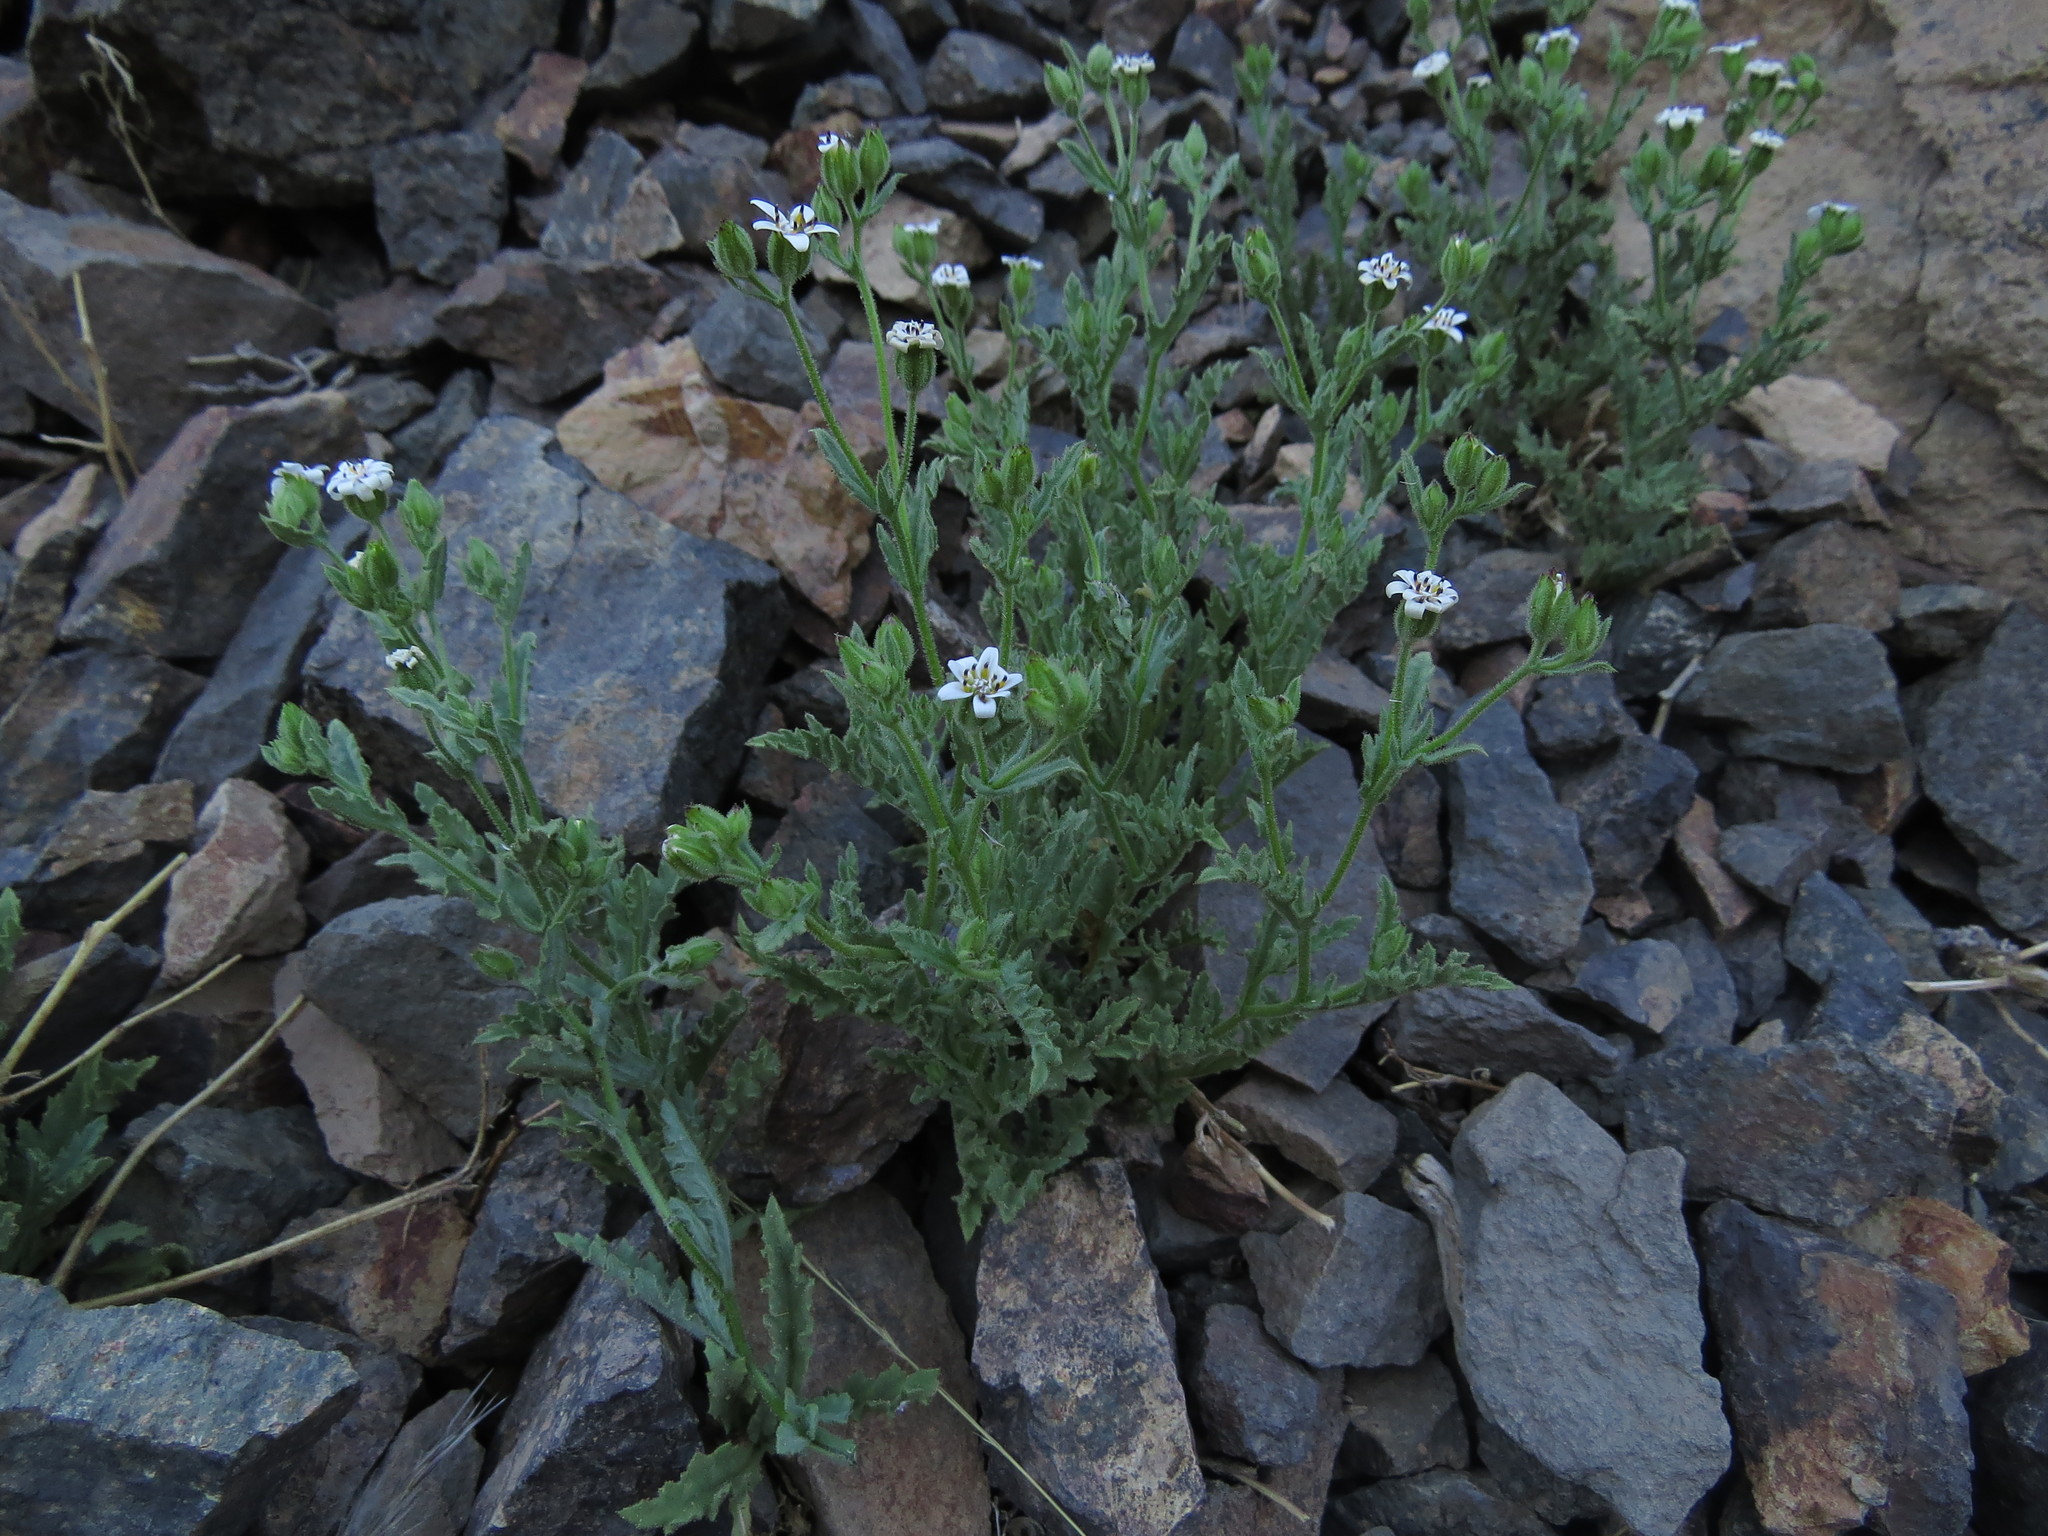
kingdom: Plantae
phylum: Tracheophyta
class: Magnoliopsida
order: Asterales
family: Asteraceae
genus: Leucheria
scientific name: Leucheria polyclados
